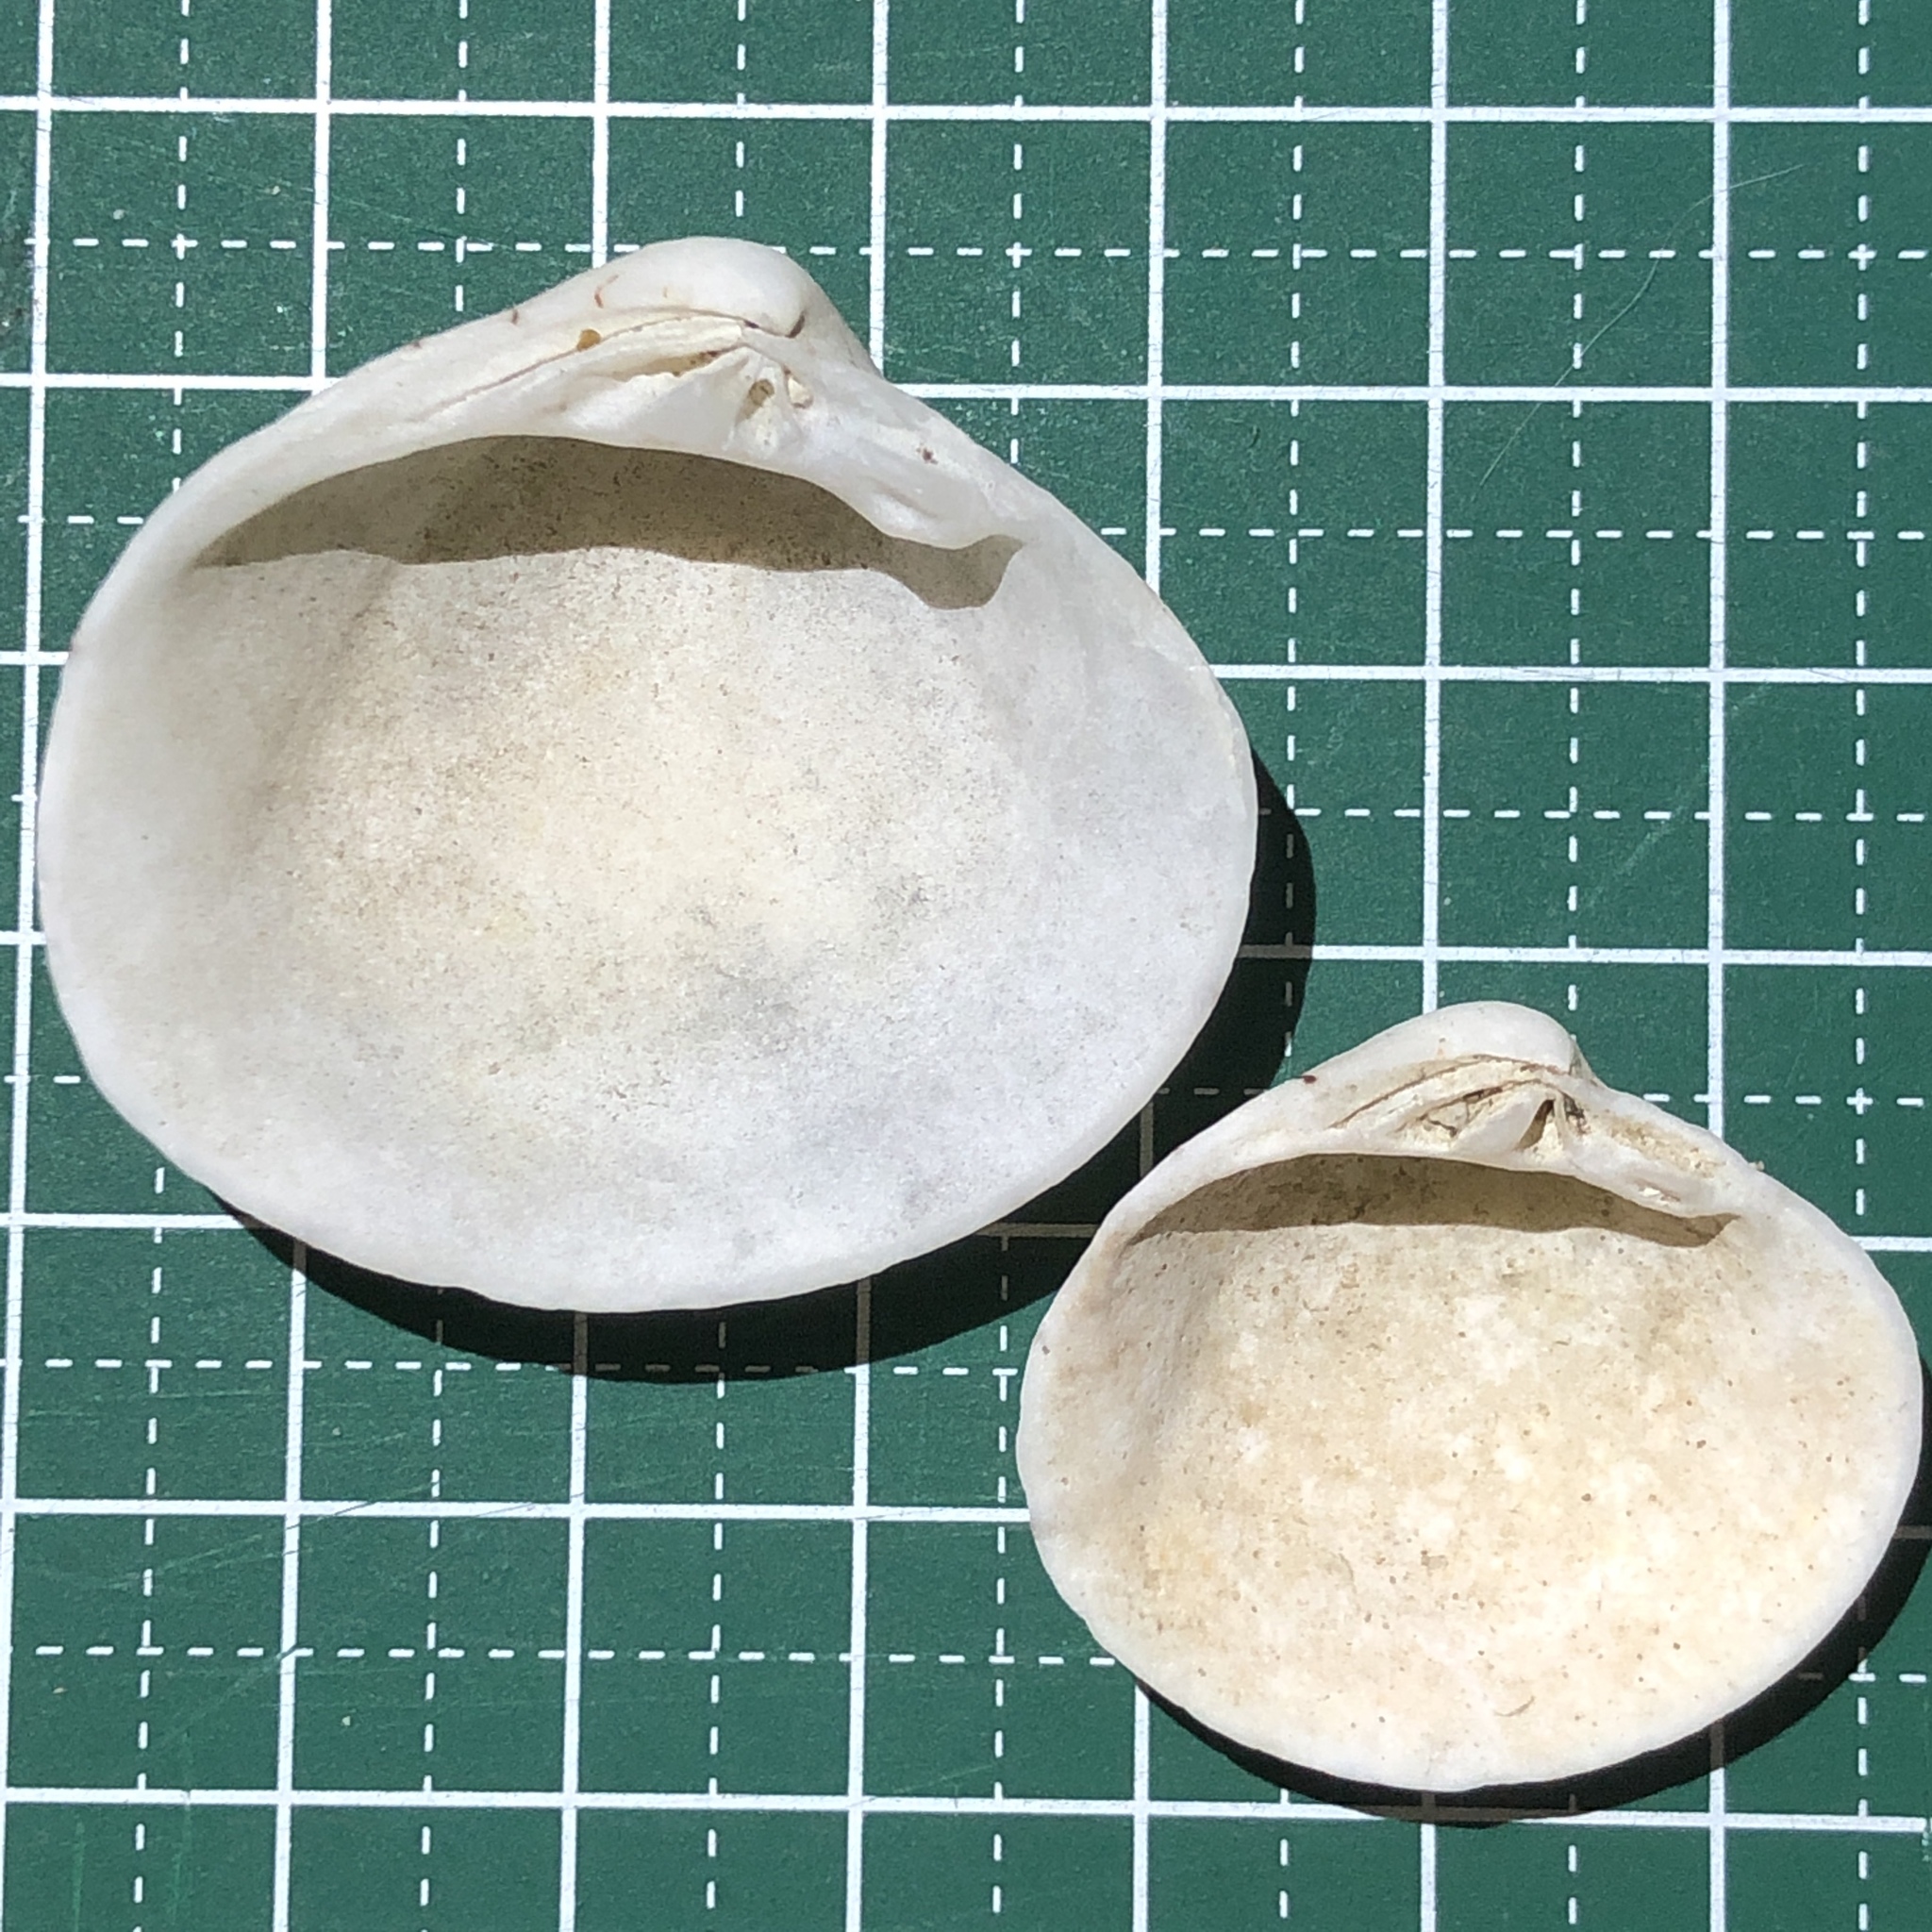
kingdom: Animalia
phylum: Mollusca
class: Bivalvia
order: Venerida
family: Veneridae
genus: Lioconcha
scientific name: Lioconcha castrensis
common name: Camp pitar-venus
